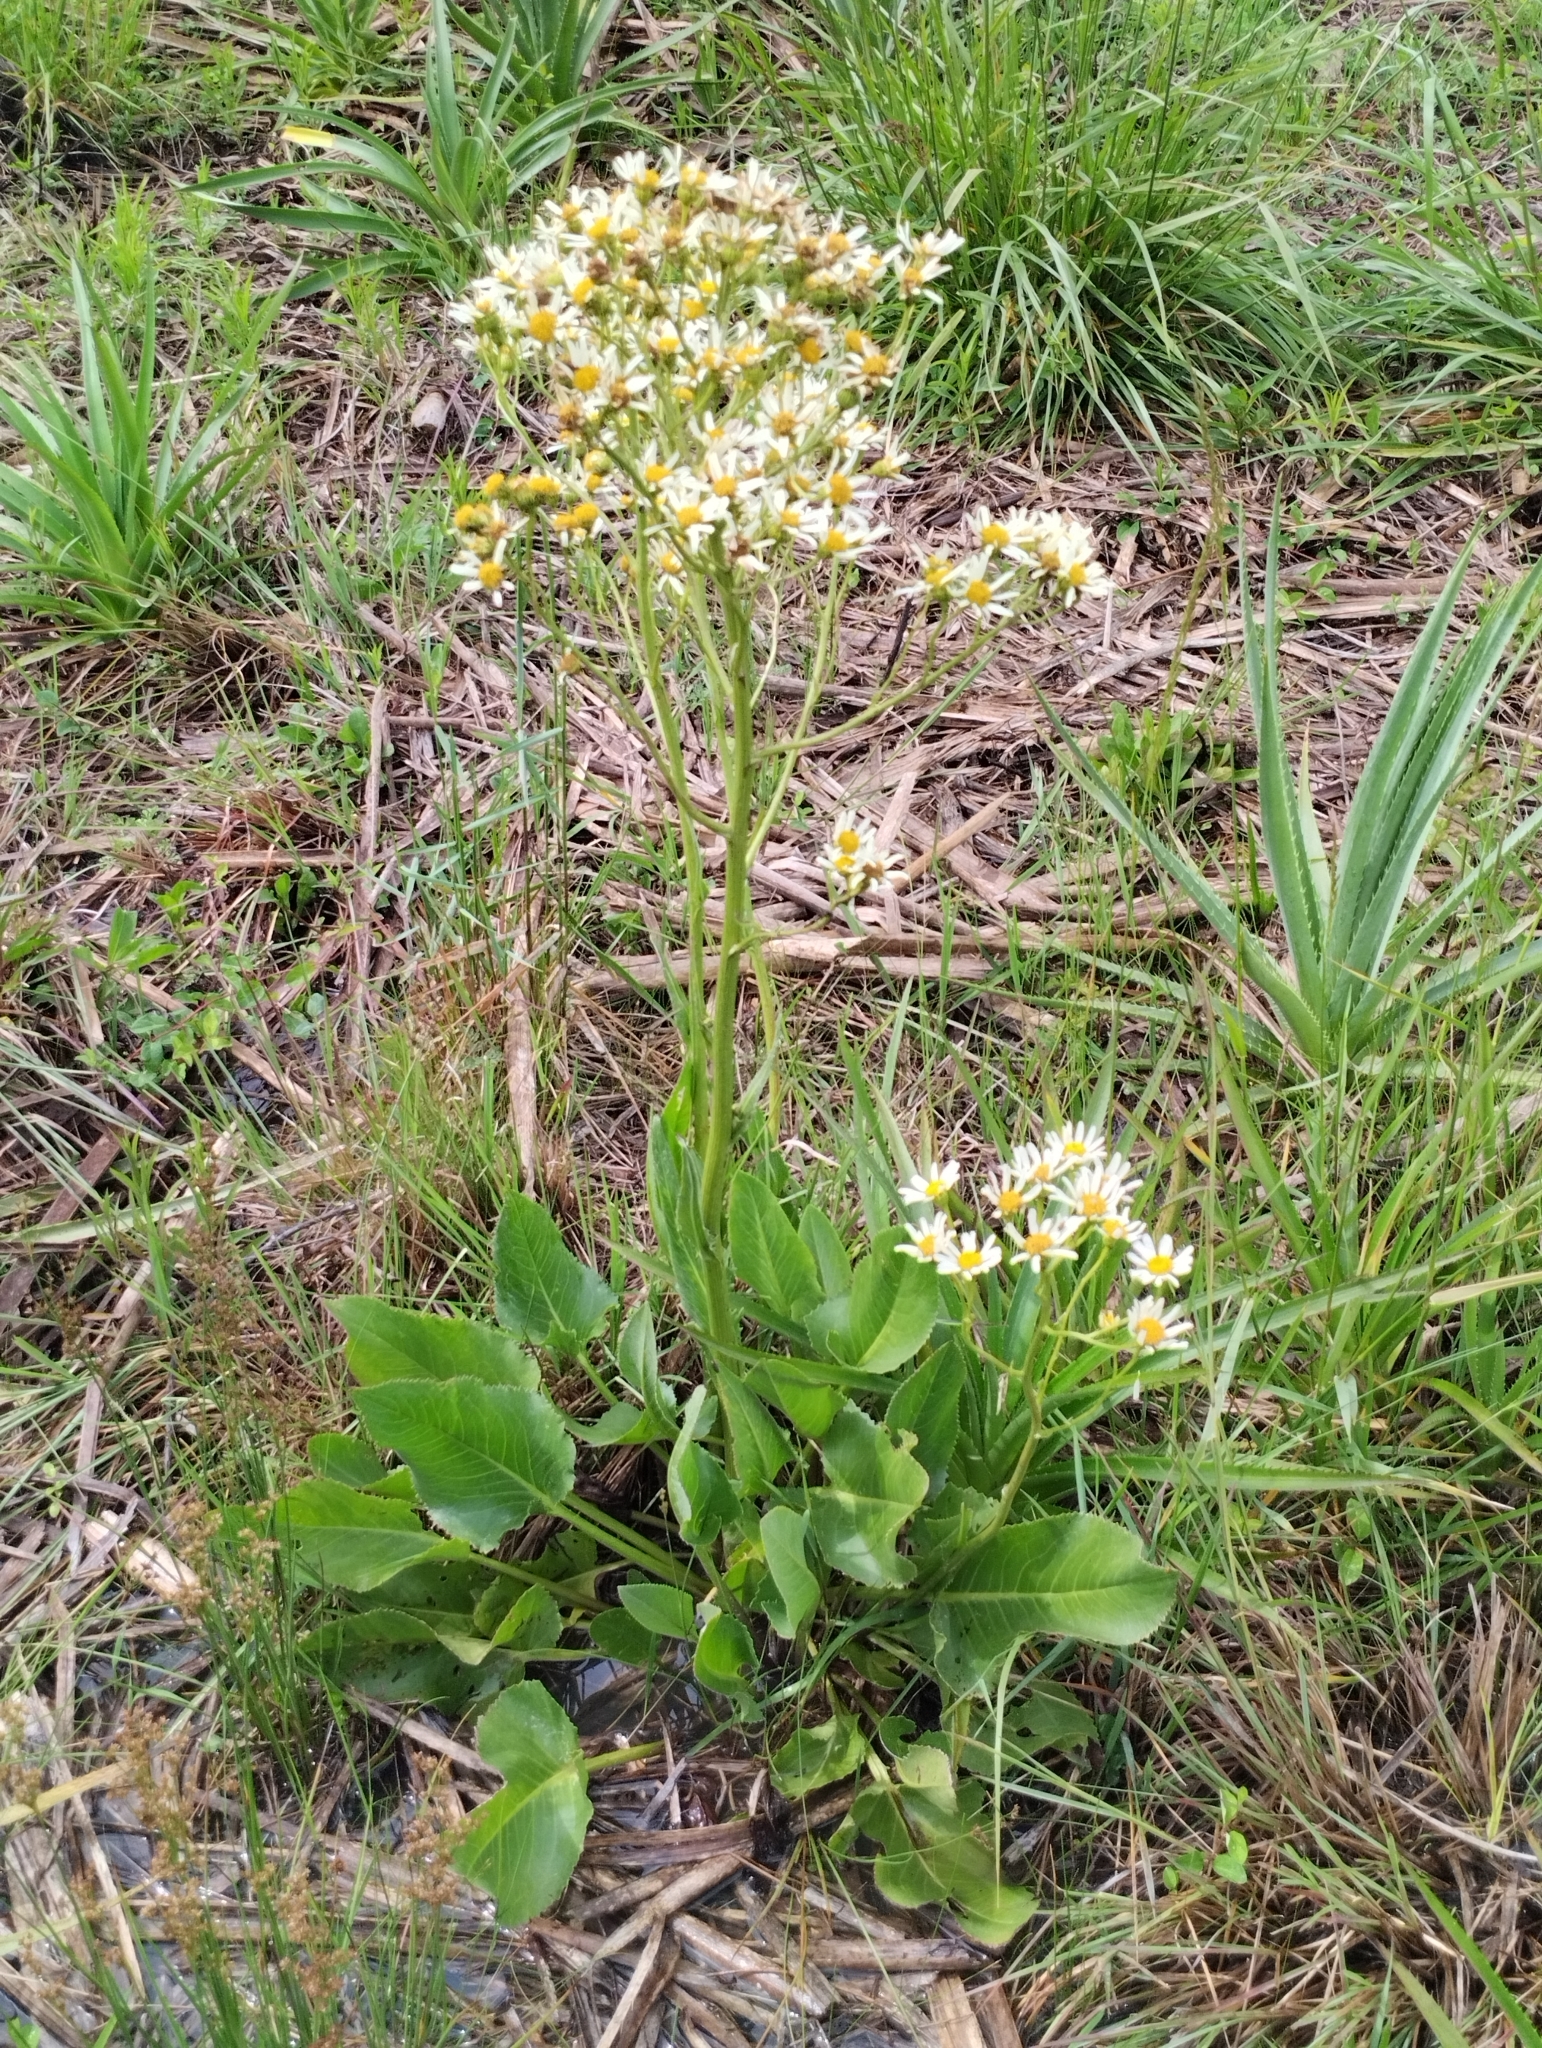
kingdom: Plantae
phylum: Tracheophyta
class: Magnoliopsida
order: Asterales
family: Asteraceae
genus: Senecio
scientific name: Senecio bonariensis
